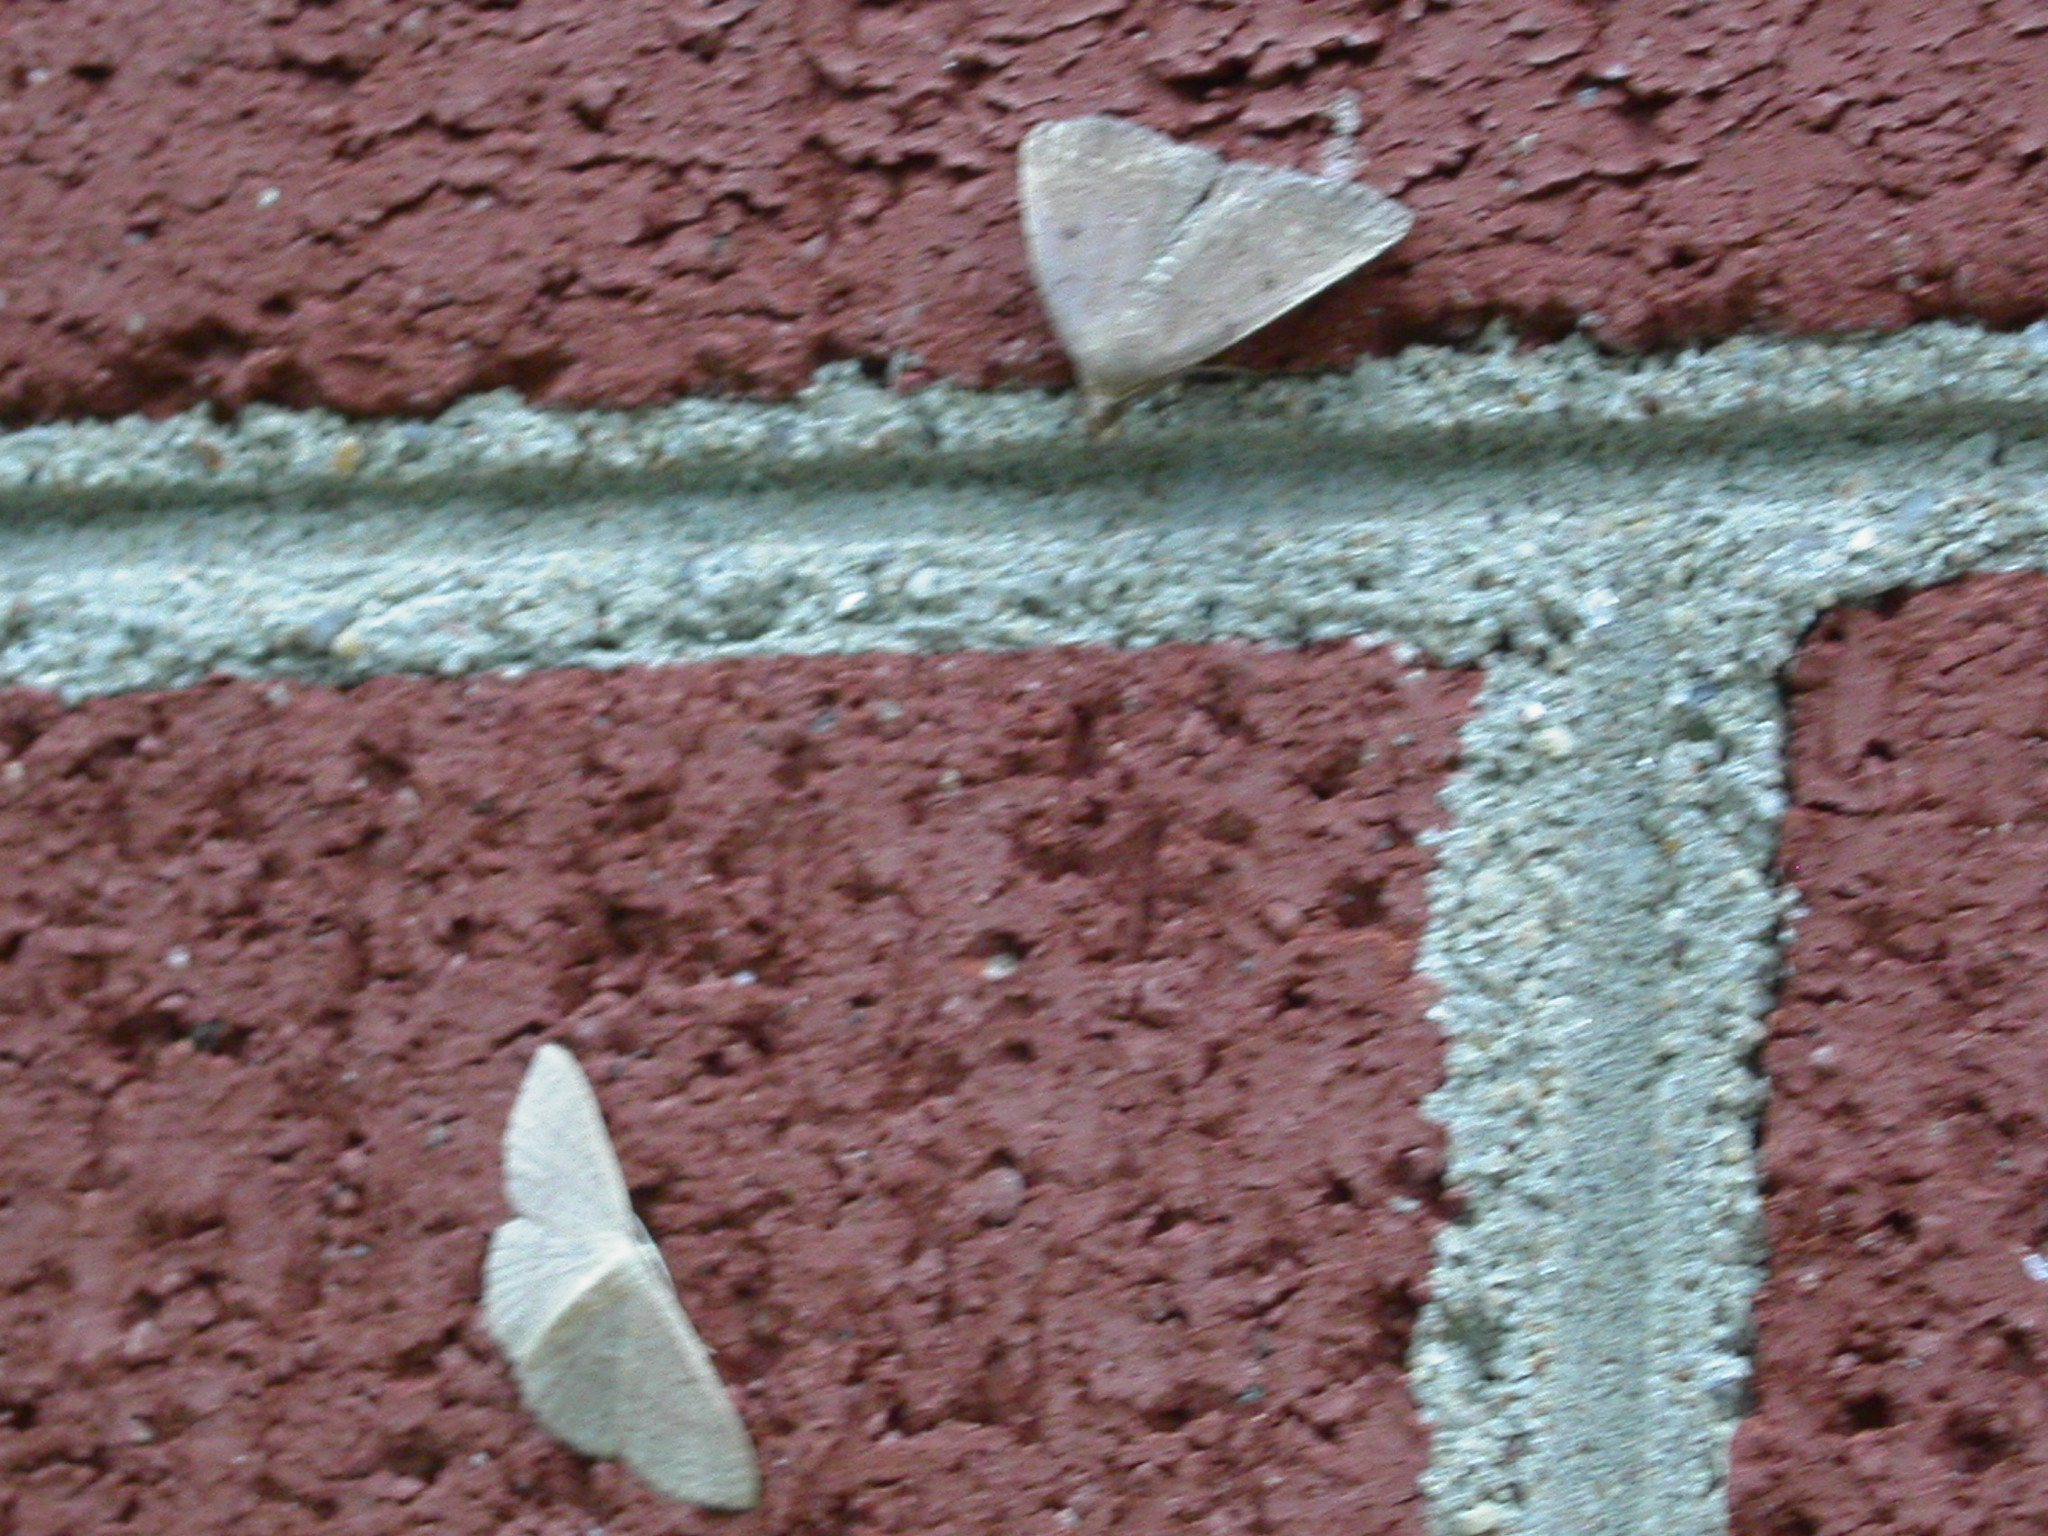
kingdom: Animalia
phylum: Arthropoda
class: Insecta
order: Lepidoptera
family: Geometridae
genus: Pleuroprucha
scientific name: Pleuroprucha insulsaria
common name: Common tan wave
